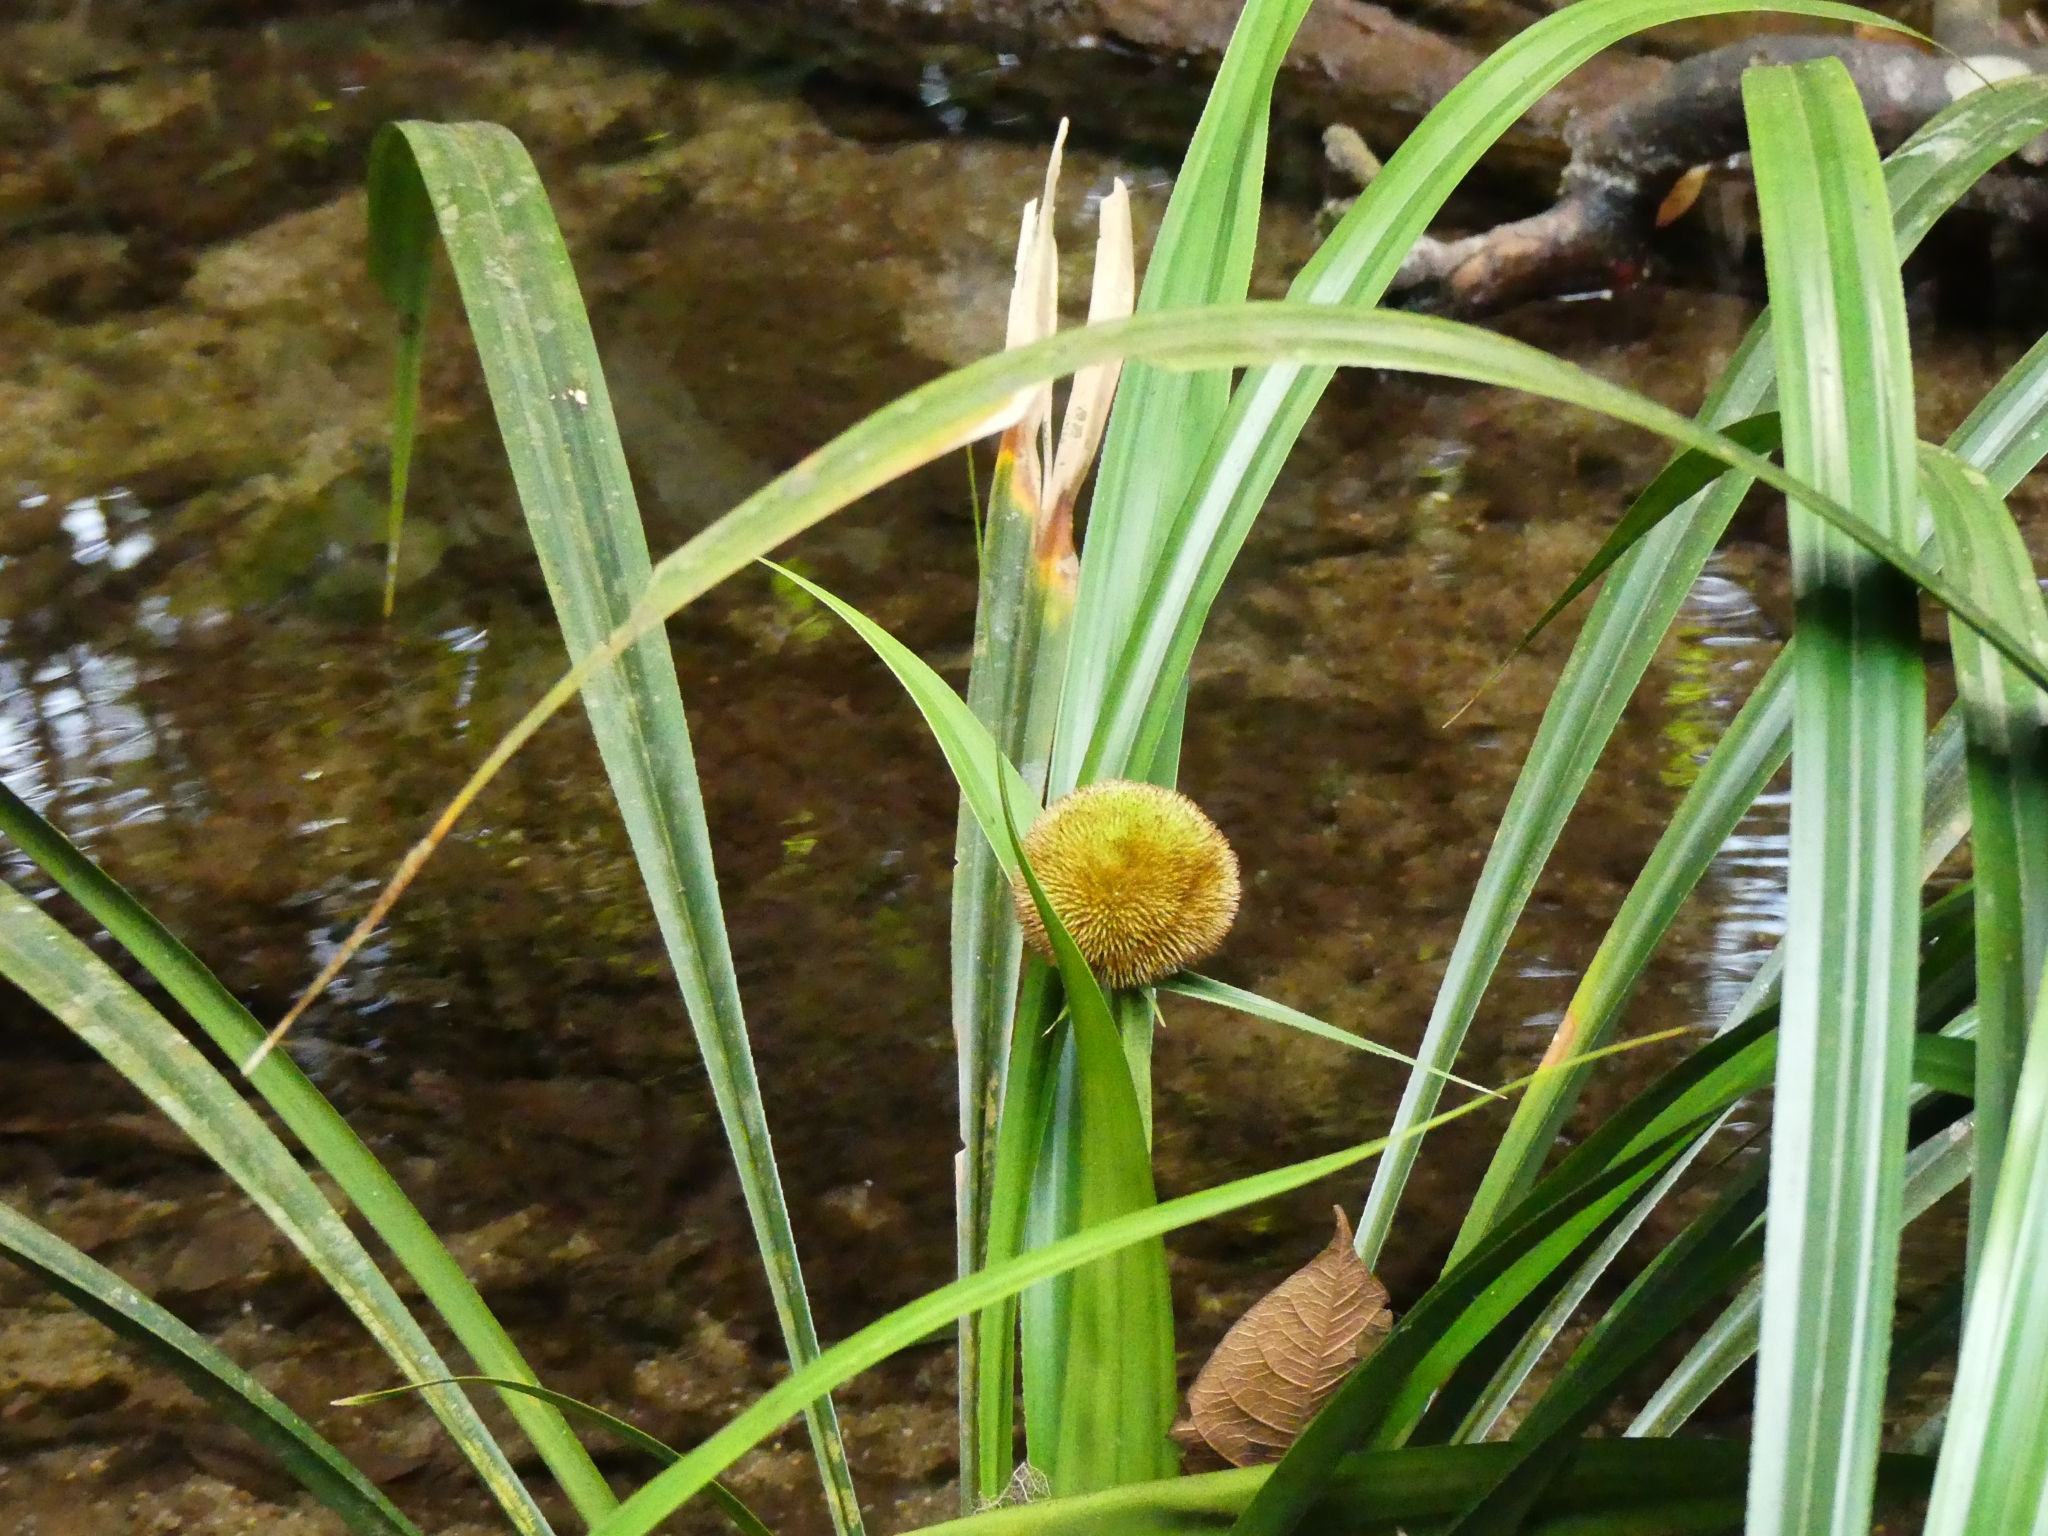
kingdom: Plantae
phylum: Tracheophyta
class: Liliopsida
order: Poales
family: Thurniaceae
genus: Thurnia
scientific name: Thurnia sphaerocephala
